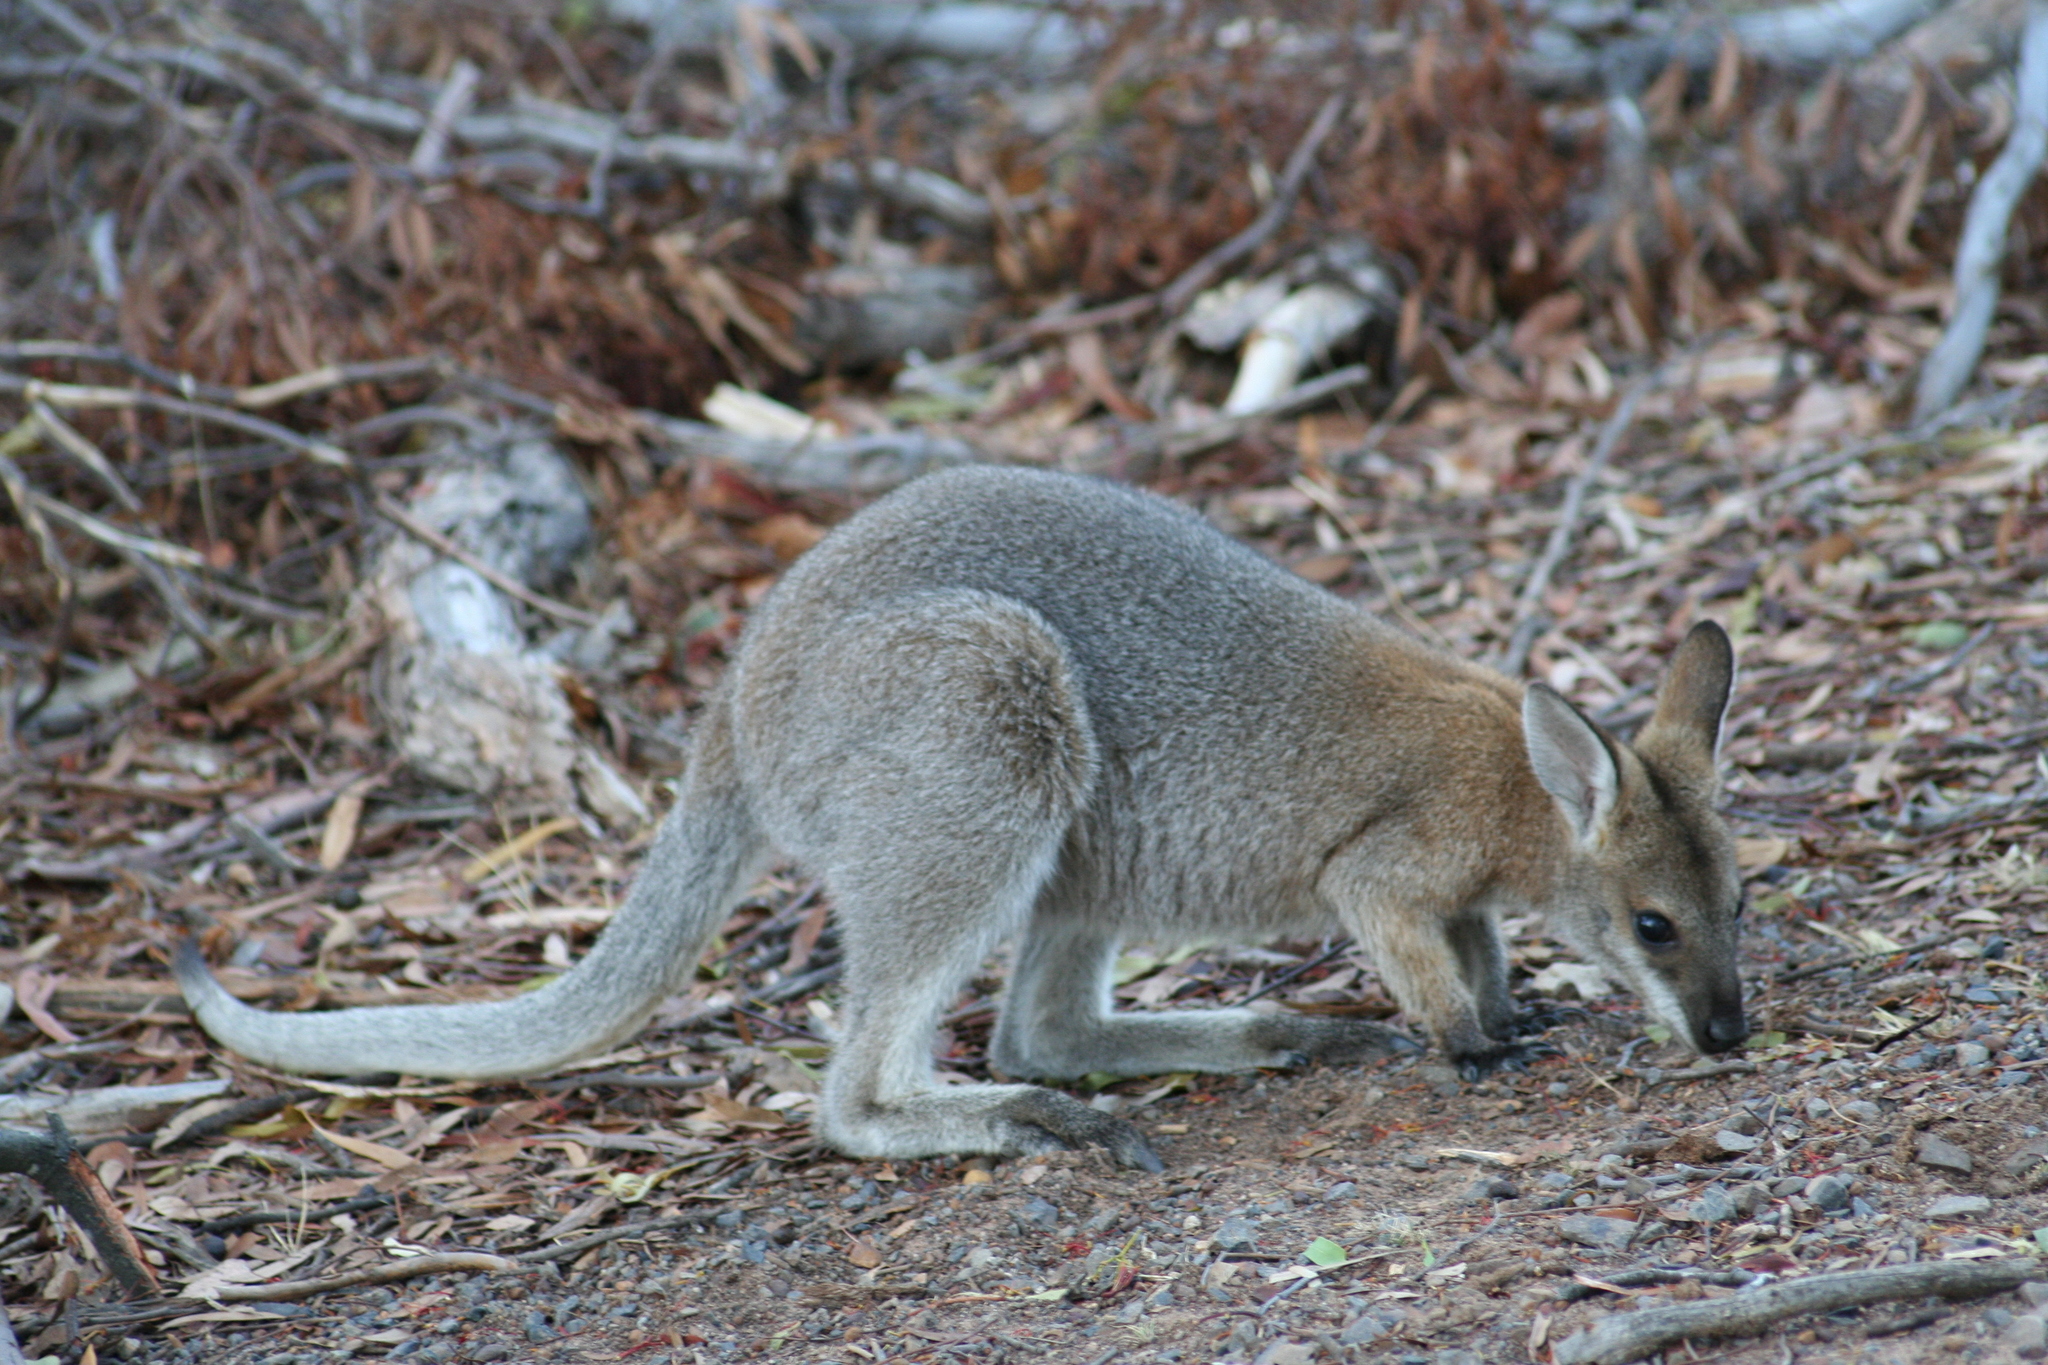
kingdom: Animalia
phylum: Chordata
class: Mammalia
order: Diprotodontia
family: Macropodidae
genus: Notamacropus
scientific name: Notamacropus rufogriseus
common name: Red-necked wallaby
